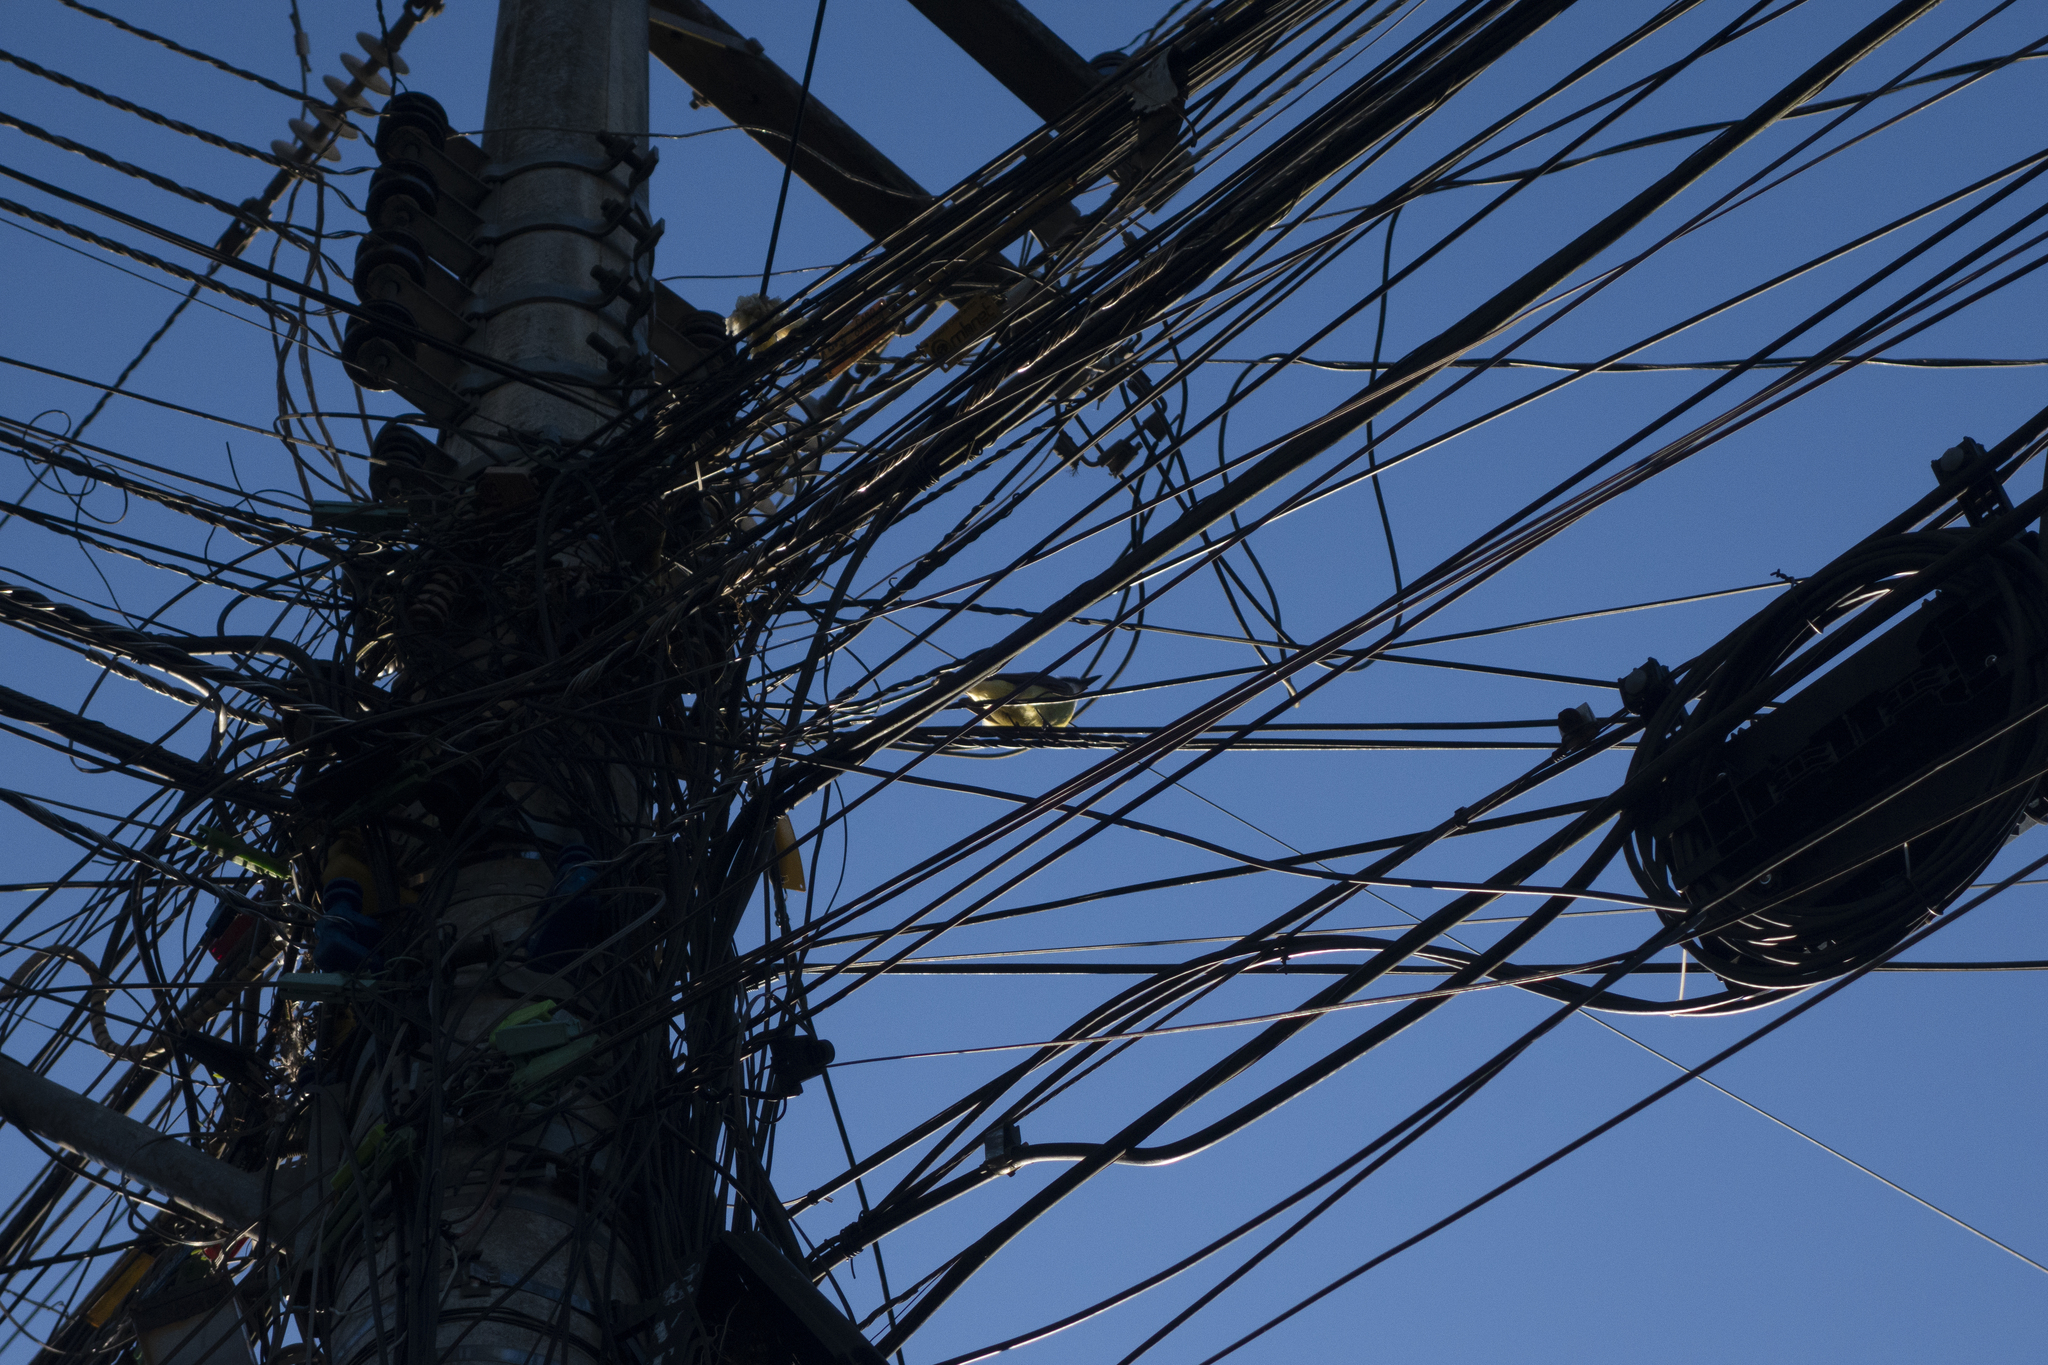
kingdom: Animalia
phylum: Chordata
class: Aves
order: Passeriformes
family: Tyrannidae
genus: Pitangus
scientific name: Pitangus sulphuratus
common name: Great kiskadee
